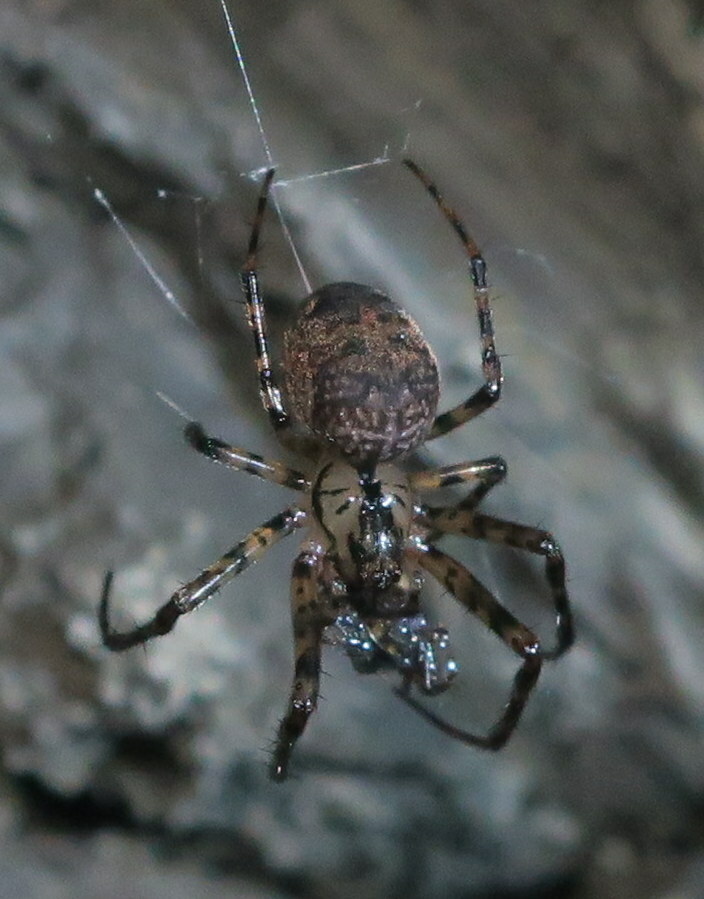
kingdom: Animalia
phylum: Arthropoda
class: Arachnida
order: Araneae
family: Tetragnathidae
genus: Metellina
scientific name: Metellina merianae
